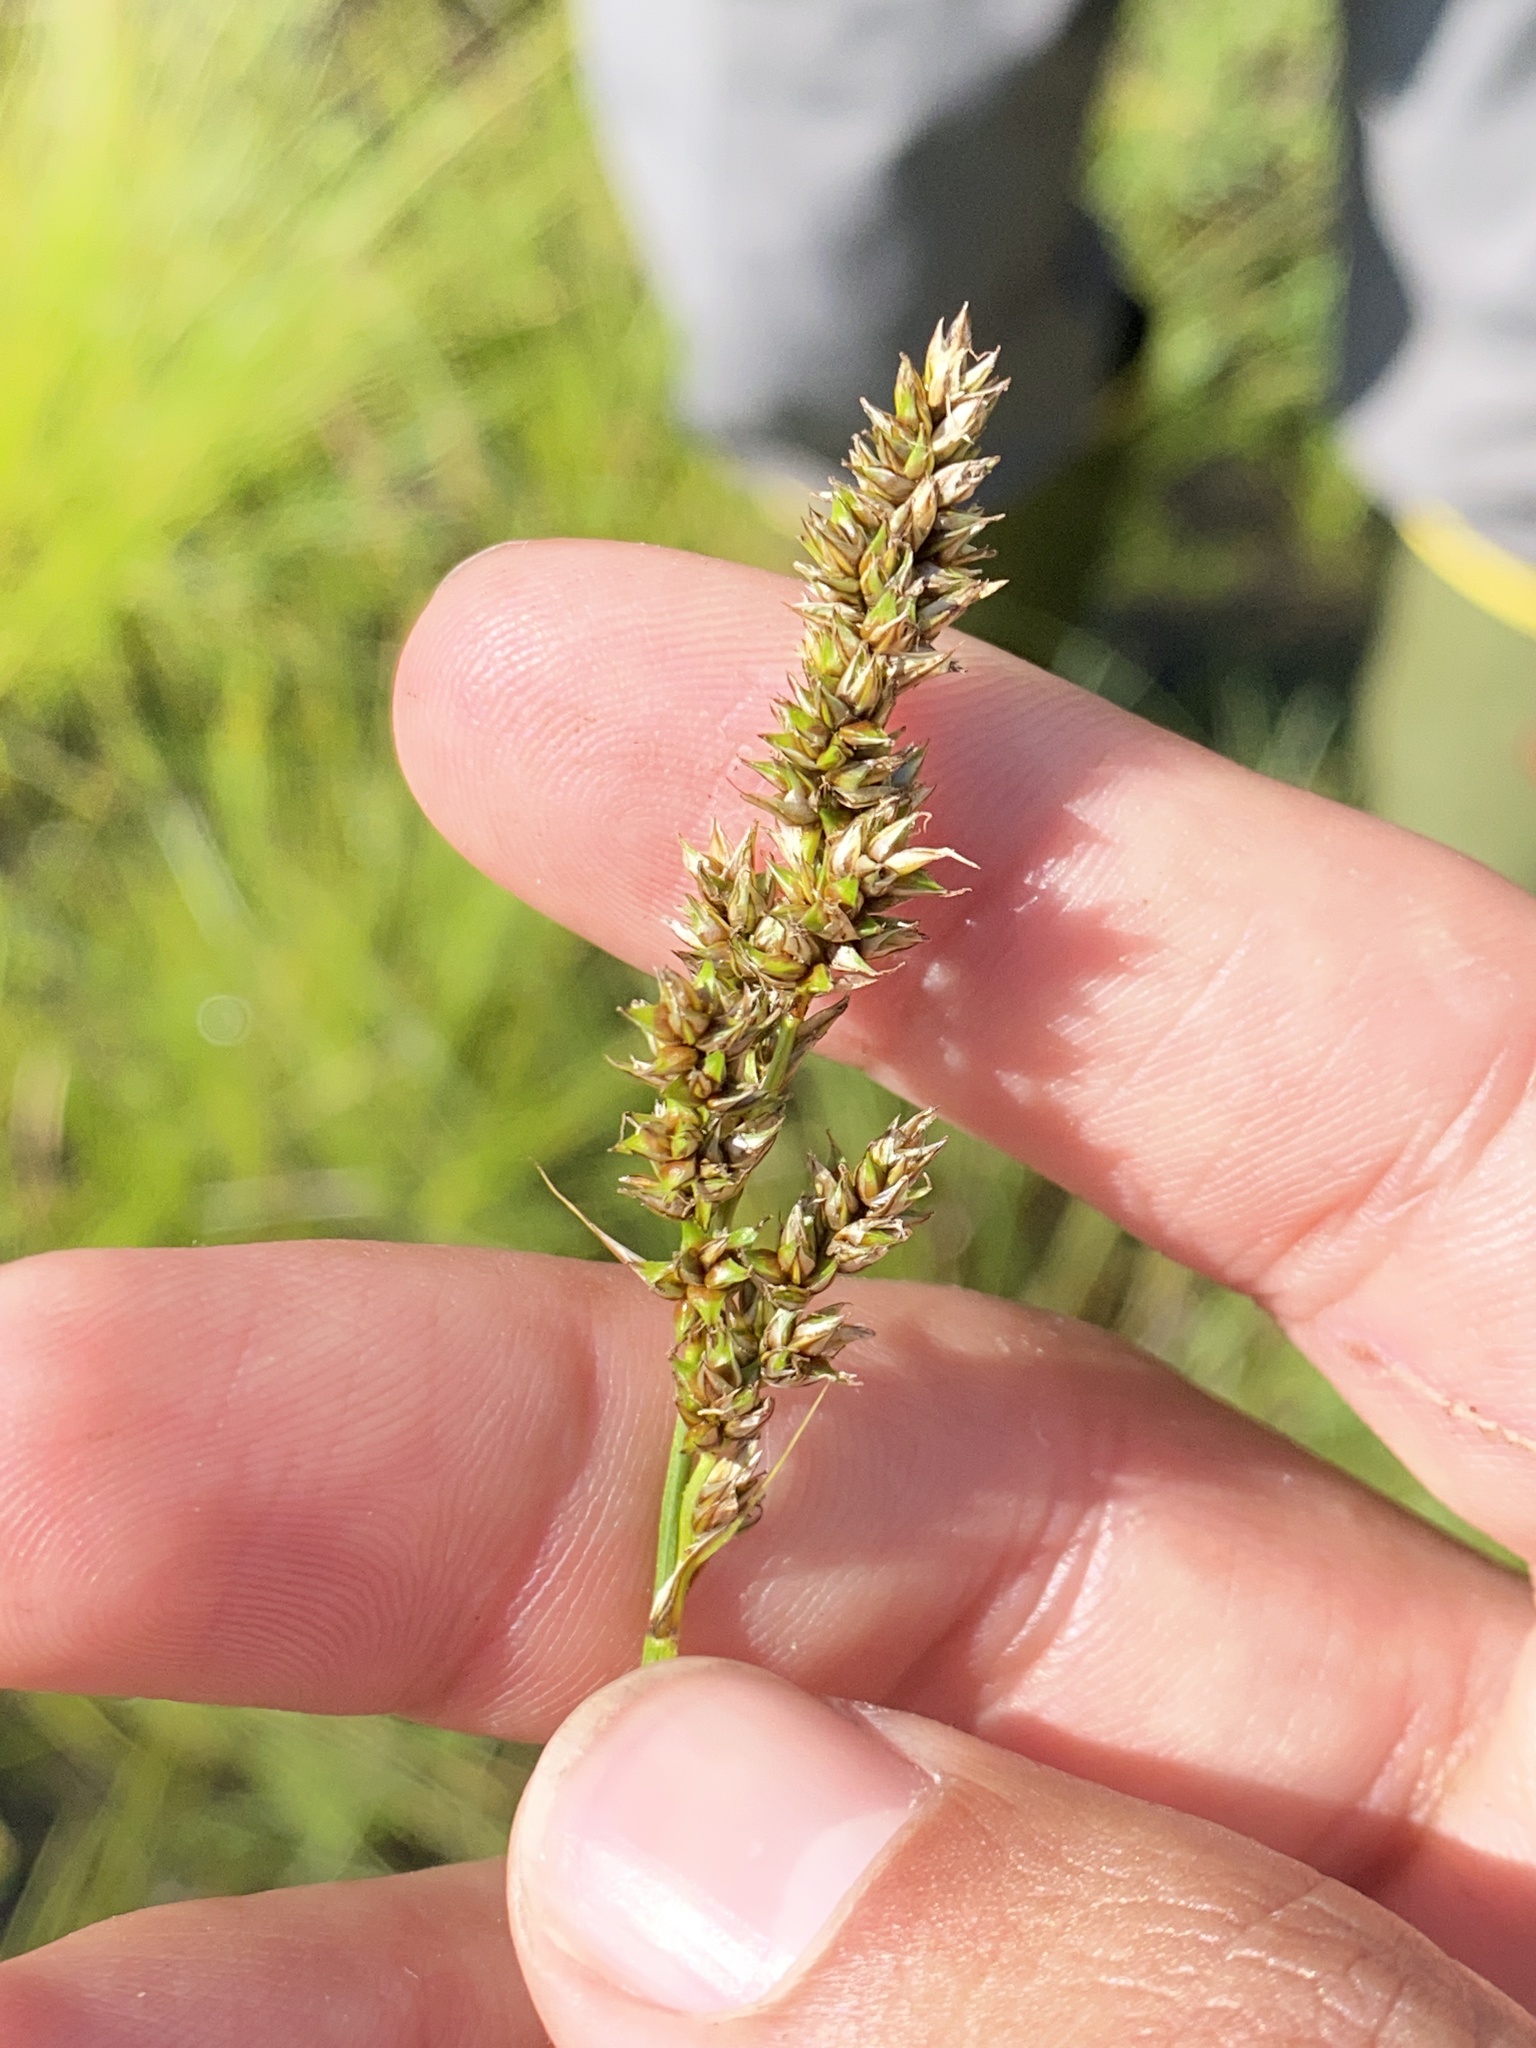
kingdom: Plantae
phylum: Tracheophyta
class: Liliopsida
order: Poales
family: Cyperaceae
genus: Carex
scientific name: Carex diandra
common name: Lesser tussock-sedge
